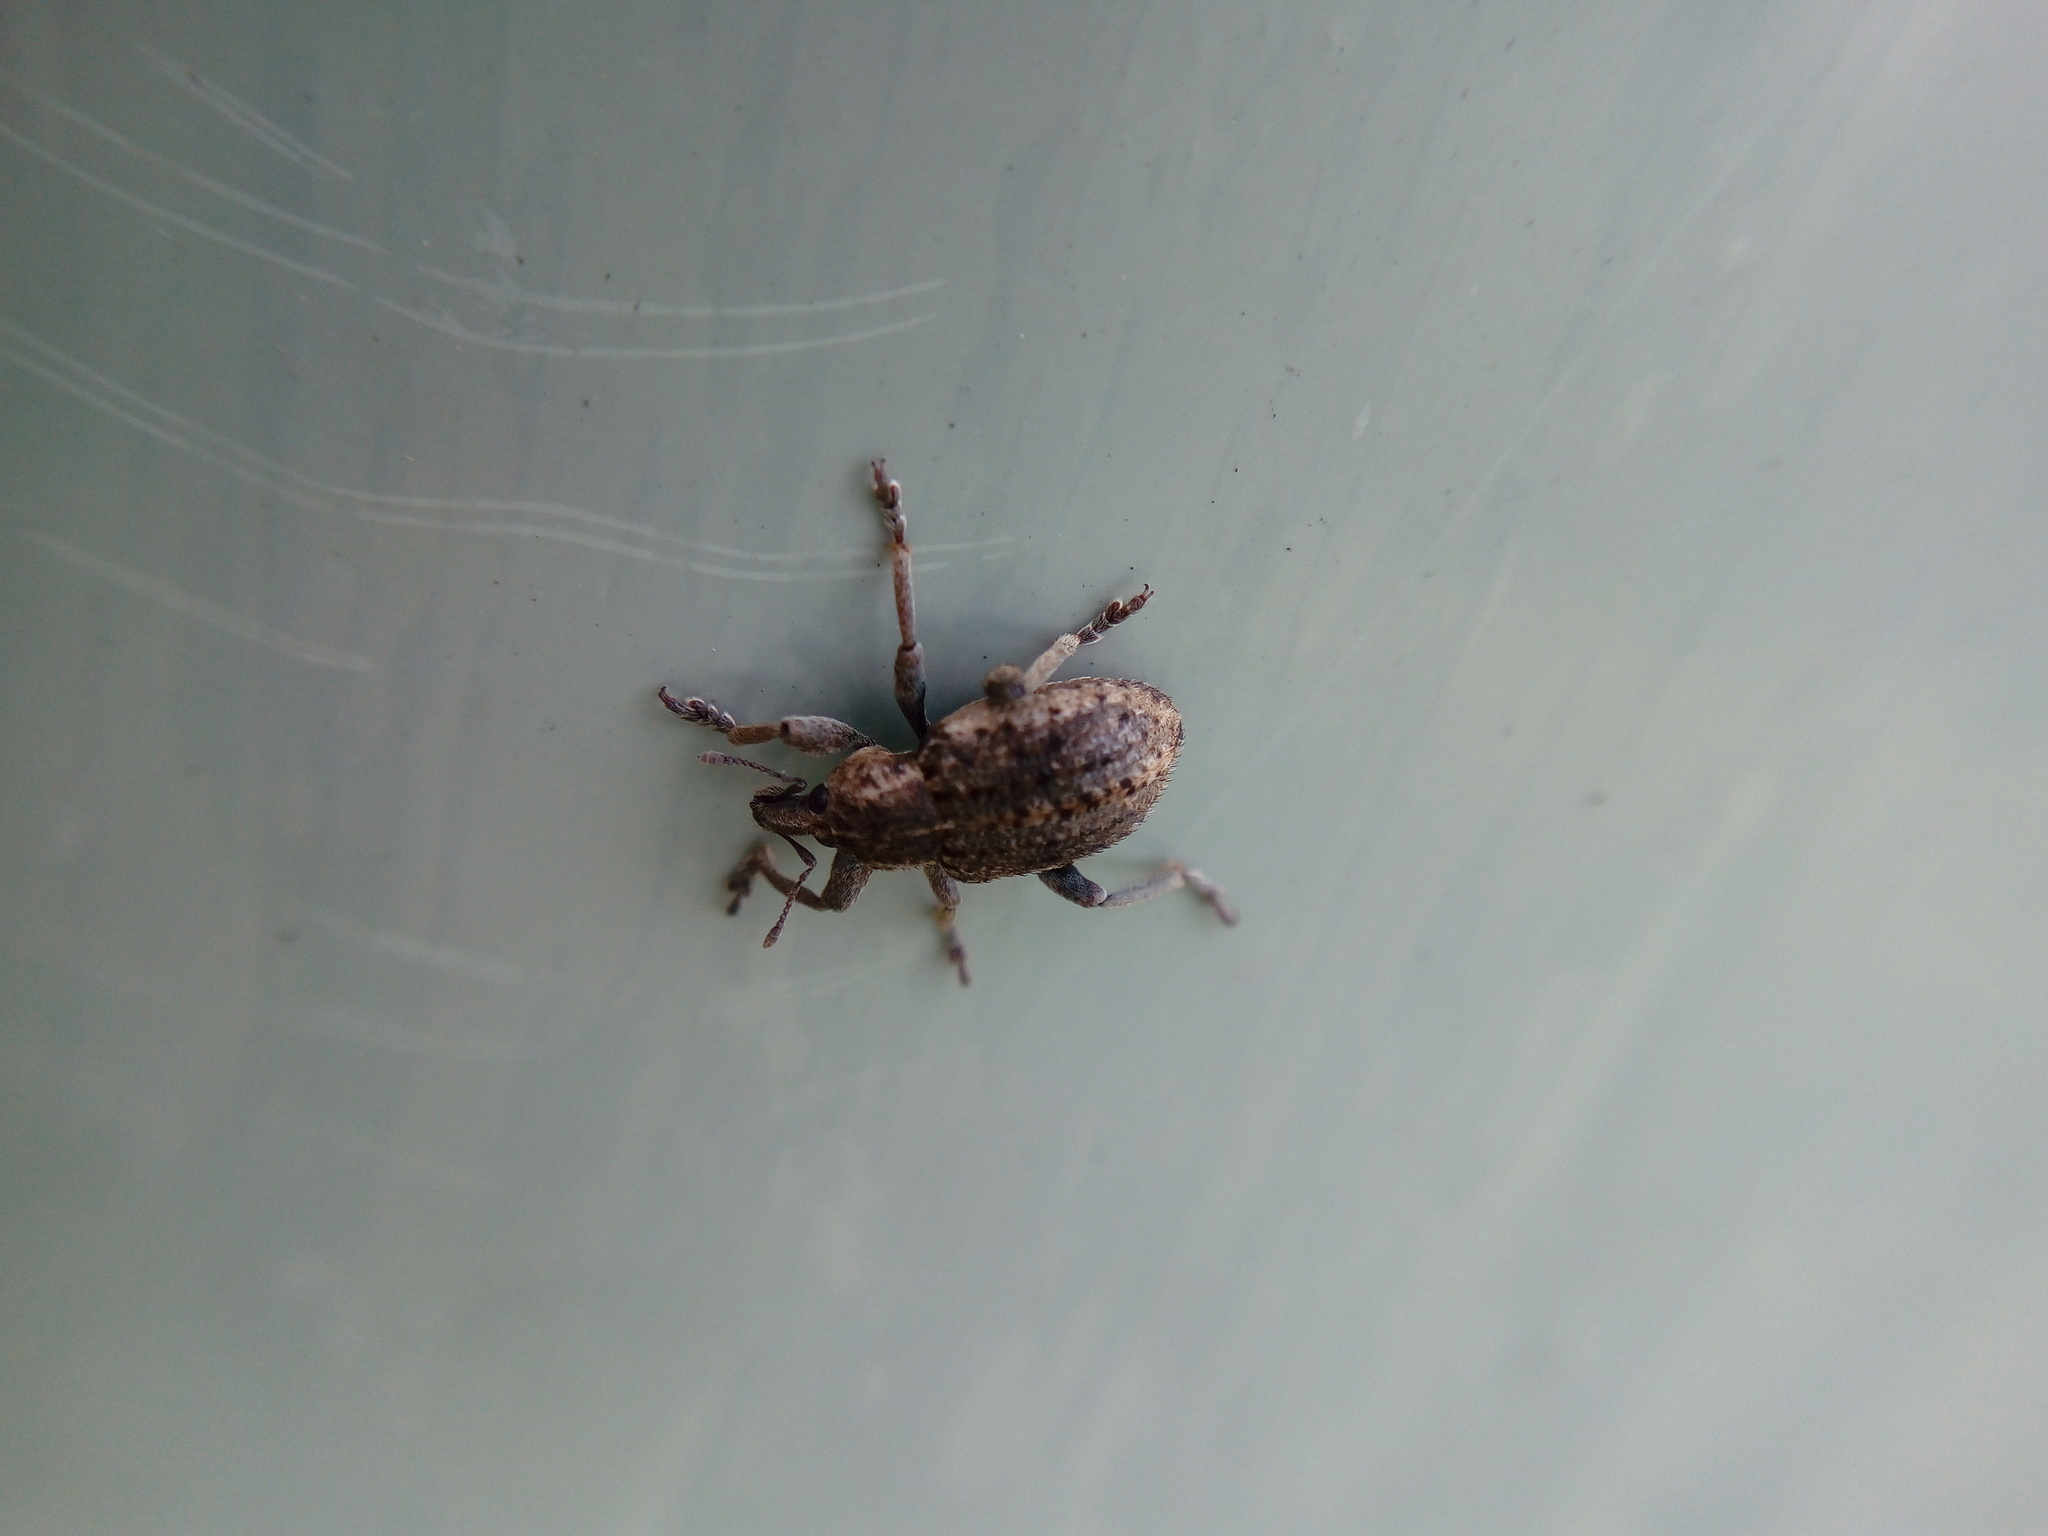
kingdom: Animalia
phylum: Arthropoda
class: Insecta
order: Coleoptera
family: Curculionidae
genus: Brachypera
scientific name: Brachypera zoilus
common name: Clover leaf weevil
